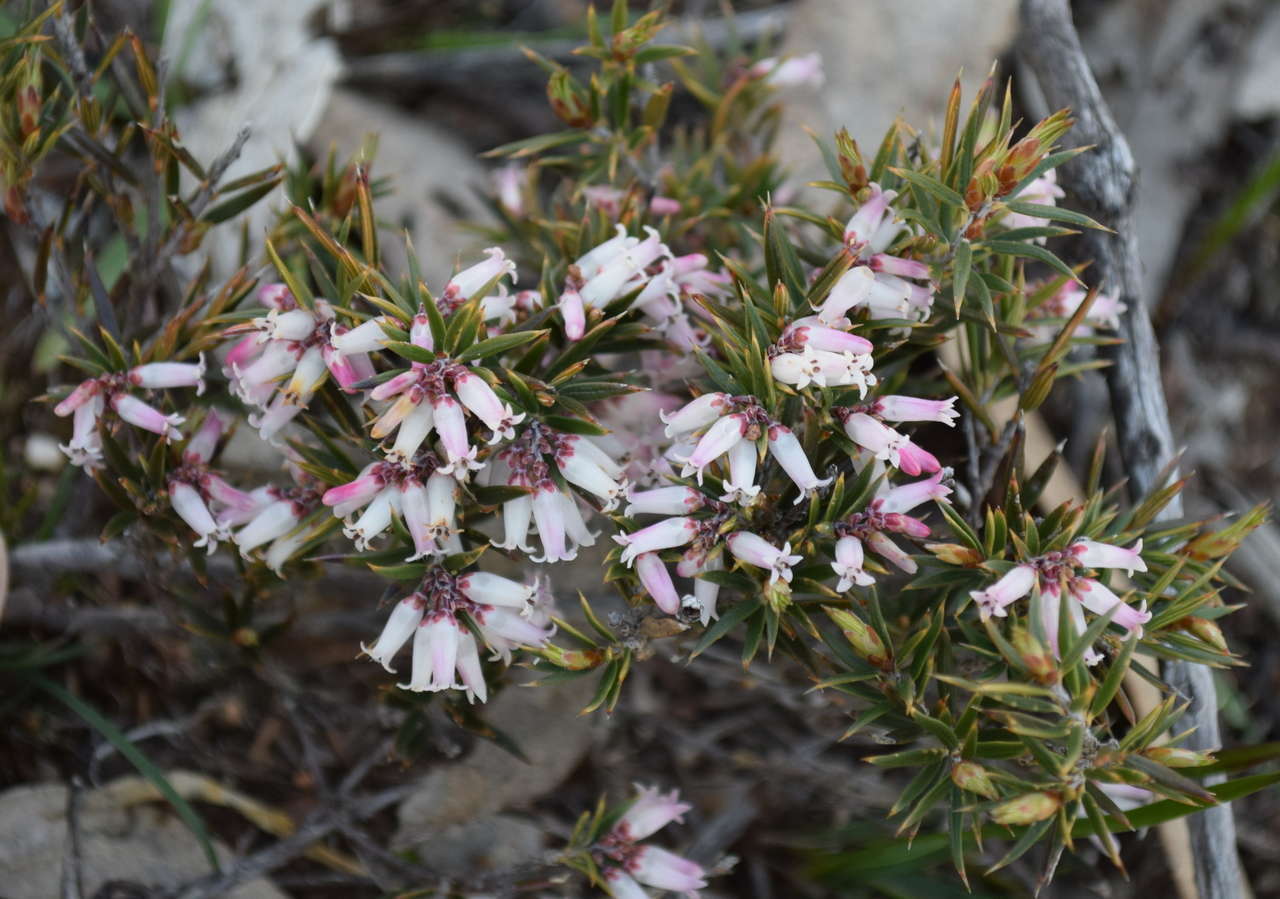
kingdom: Plantae
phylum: Tracheophyta
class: Magnoliopsida
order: Ericales
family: Ericaceae
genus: Lissanthe
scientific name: Lissanthe strigosa
